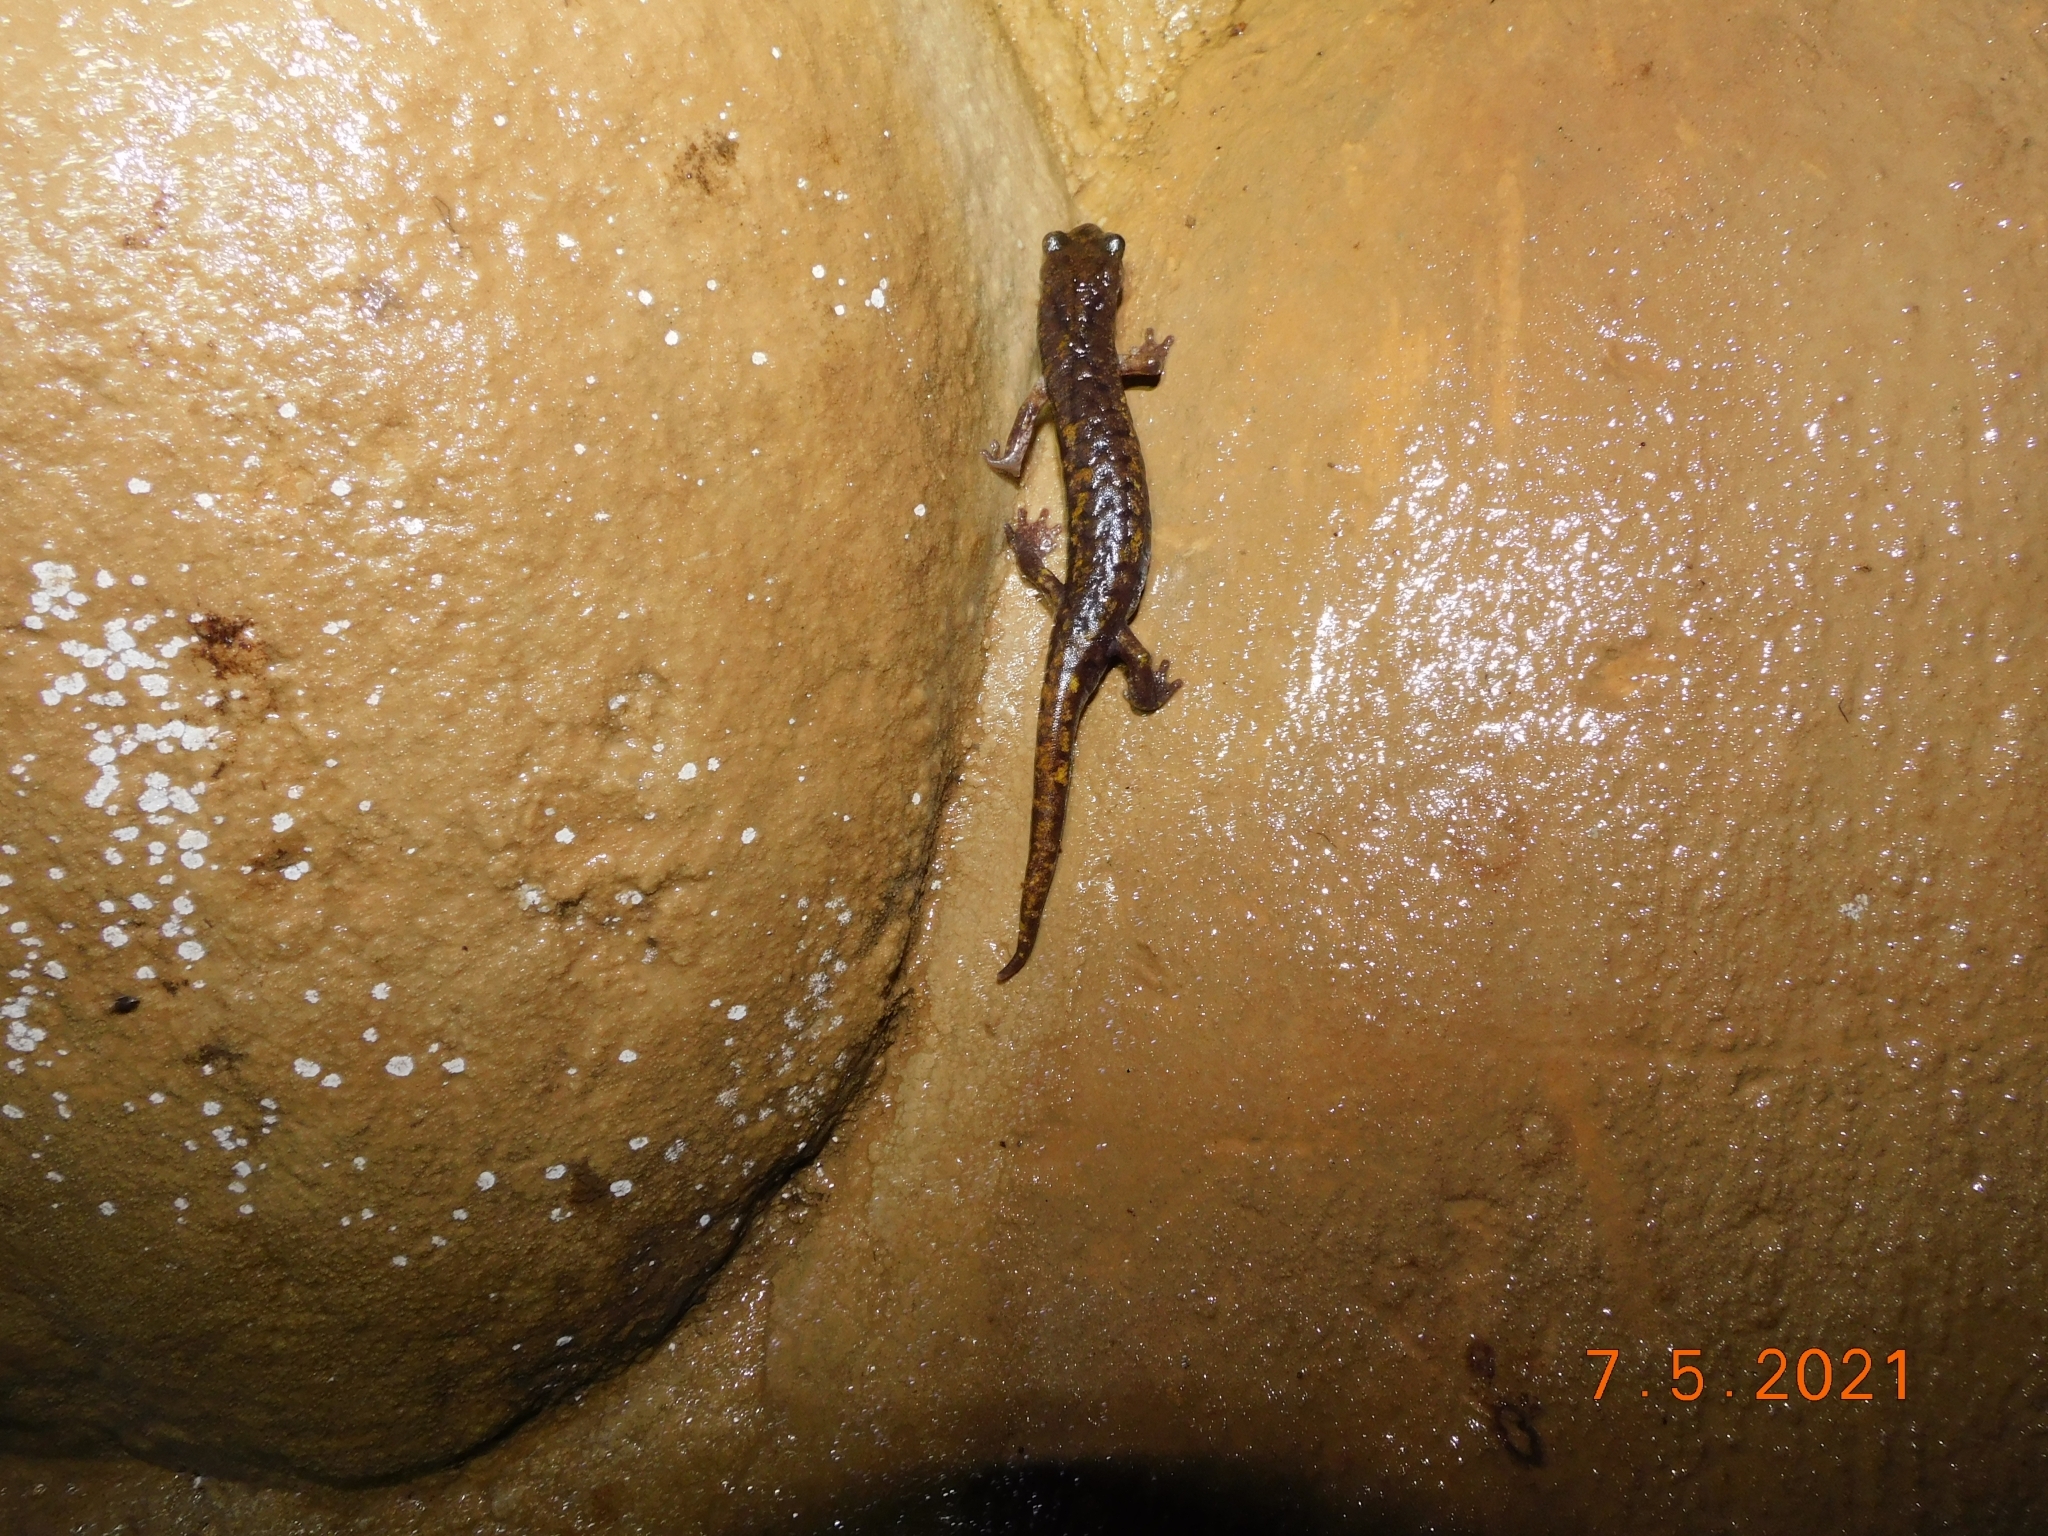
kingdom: Animalia
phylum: Chordata
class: Amphibia
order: Caudata
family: Plethodontidae
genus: Speleomantes
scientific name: Speleomantes strinatii
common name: French cave salamander
